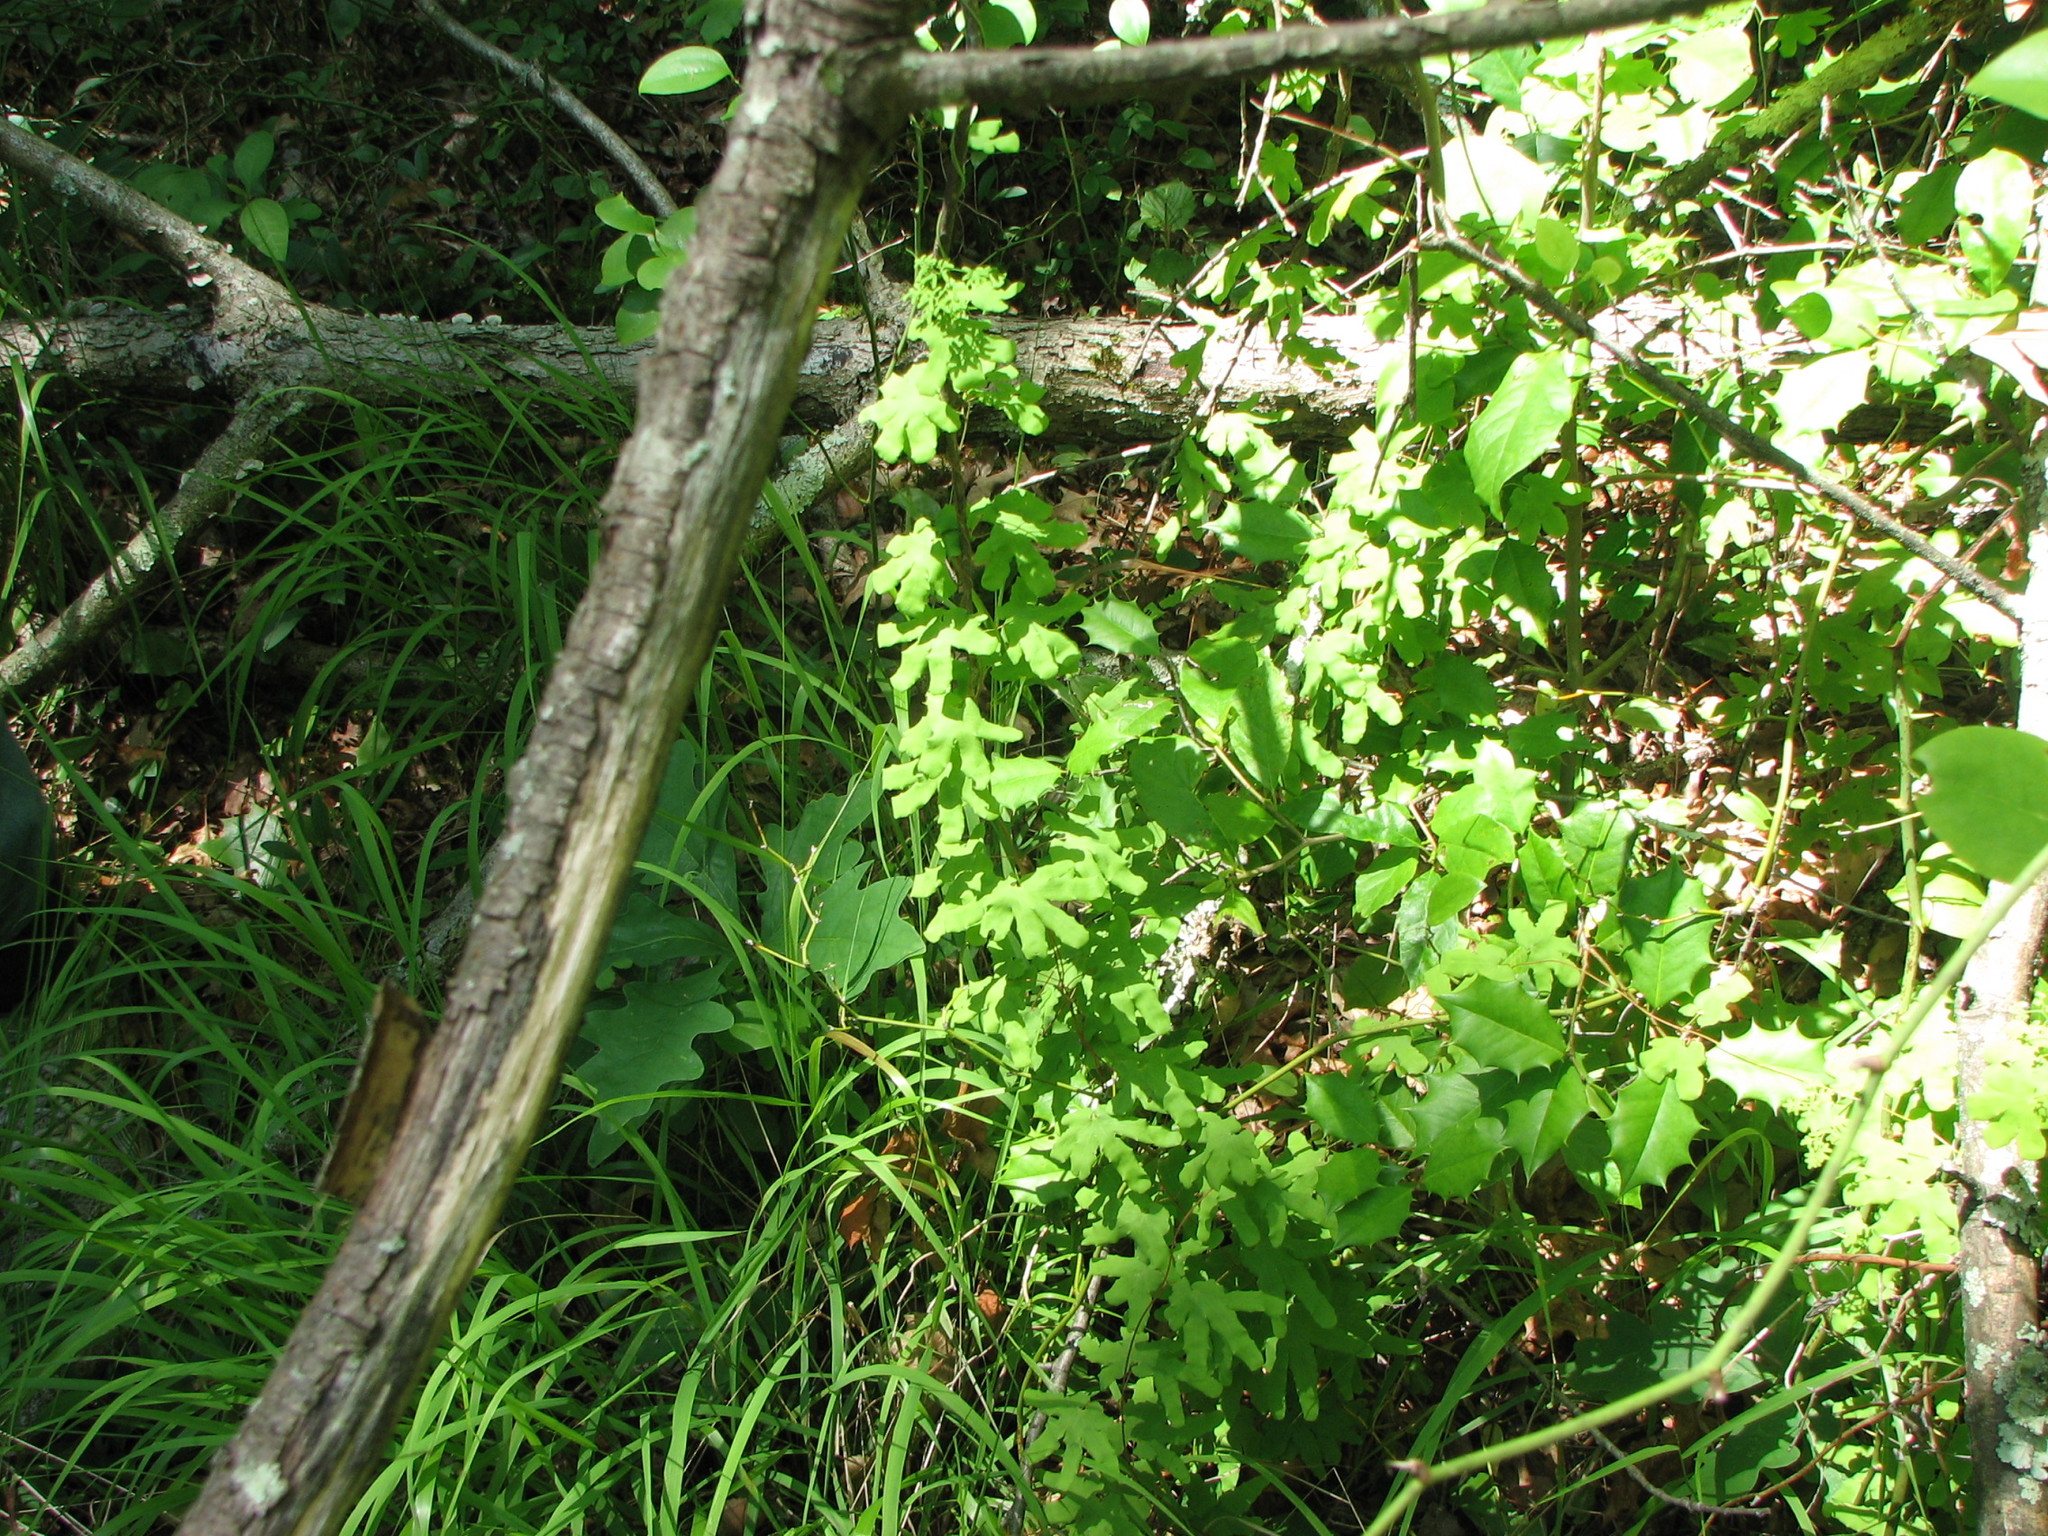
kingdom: Plantae
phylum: Tracheophyta
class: Polypodiopsida
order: Schizaeales
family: Lygodiaceae
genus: Lygodium
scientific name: Lygodium palmatum
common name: American climbing fern
